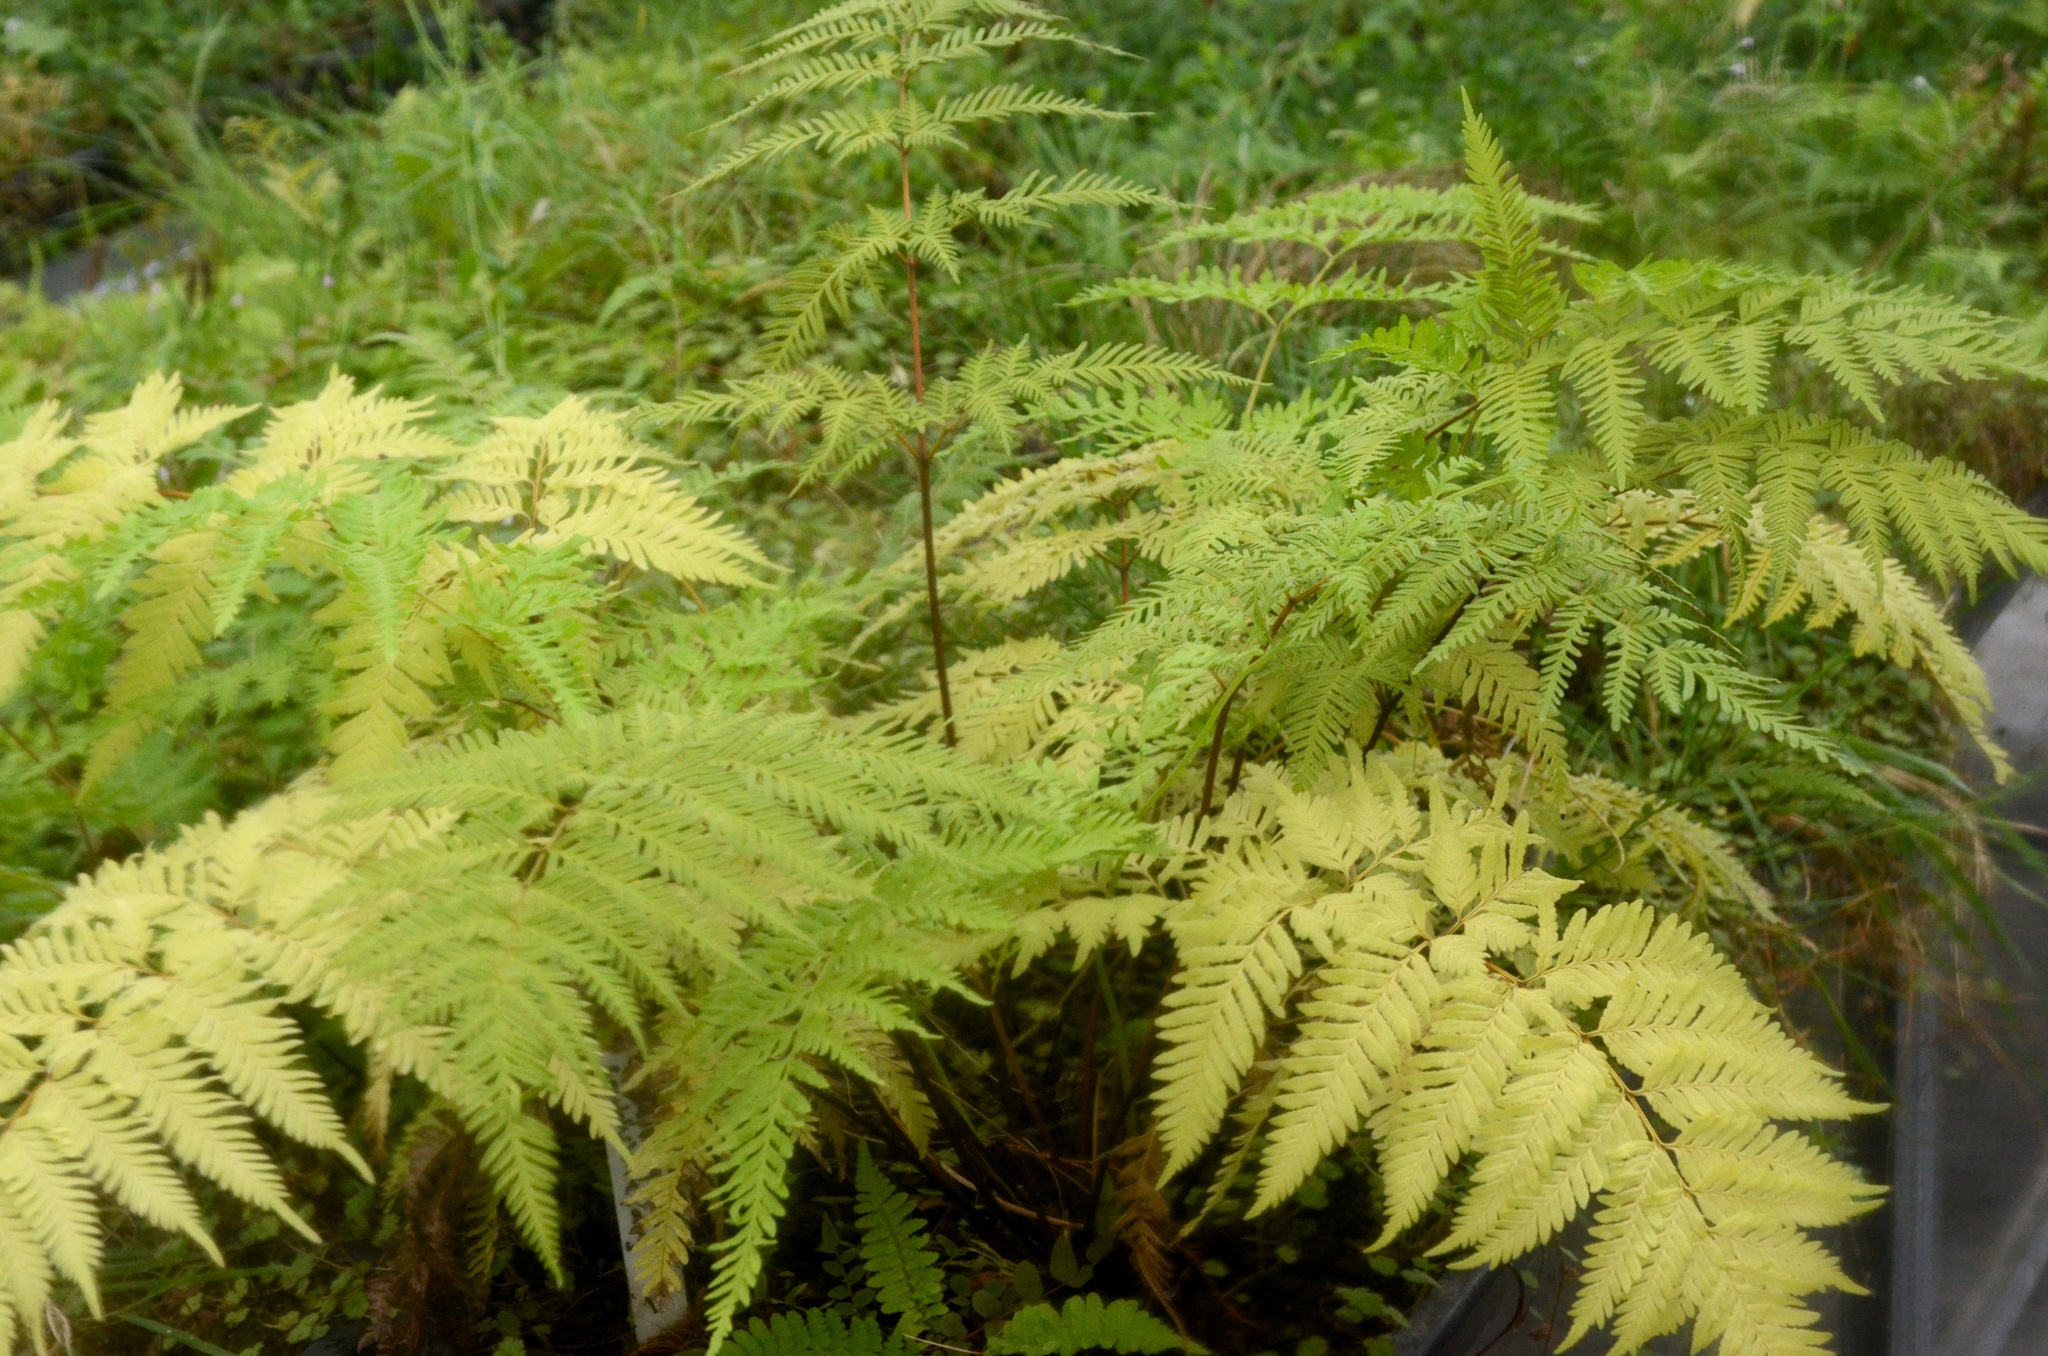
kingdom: Plantae
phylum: Tracheophyta
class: Polypodiopsida
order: Polypodiales
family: Pteridaceae
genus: Pteris
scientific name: Pteris tremula
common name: Australian brake
